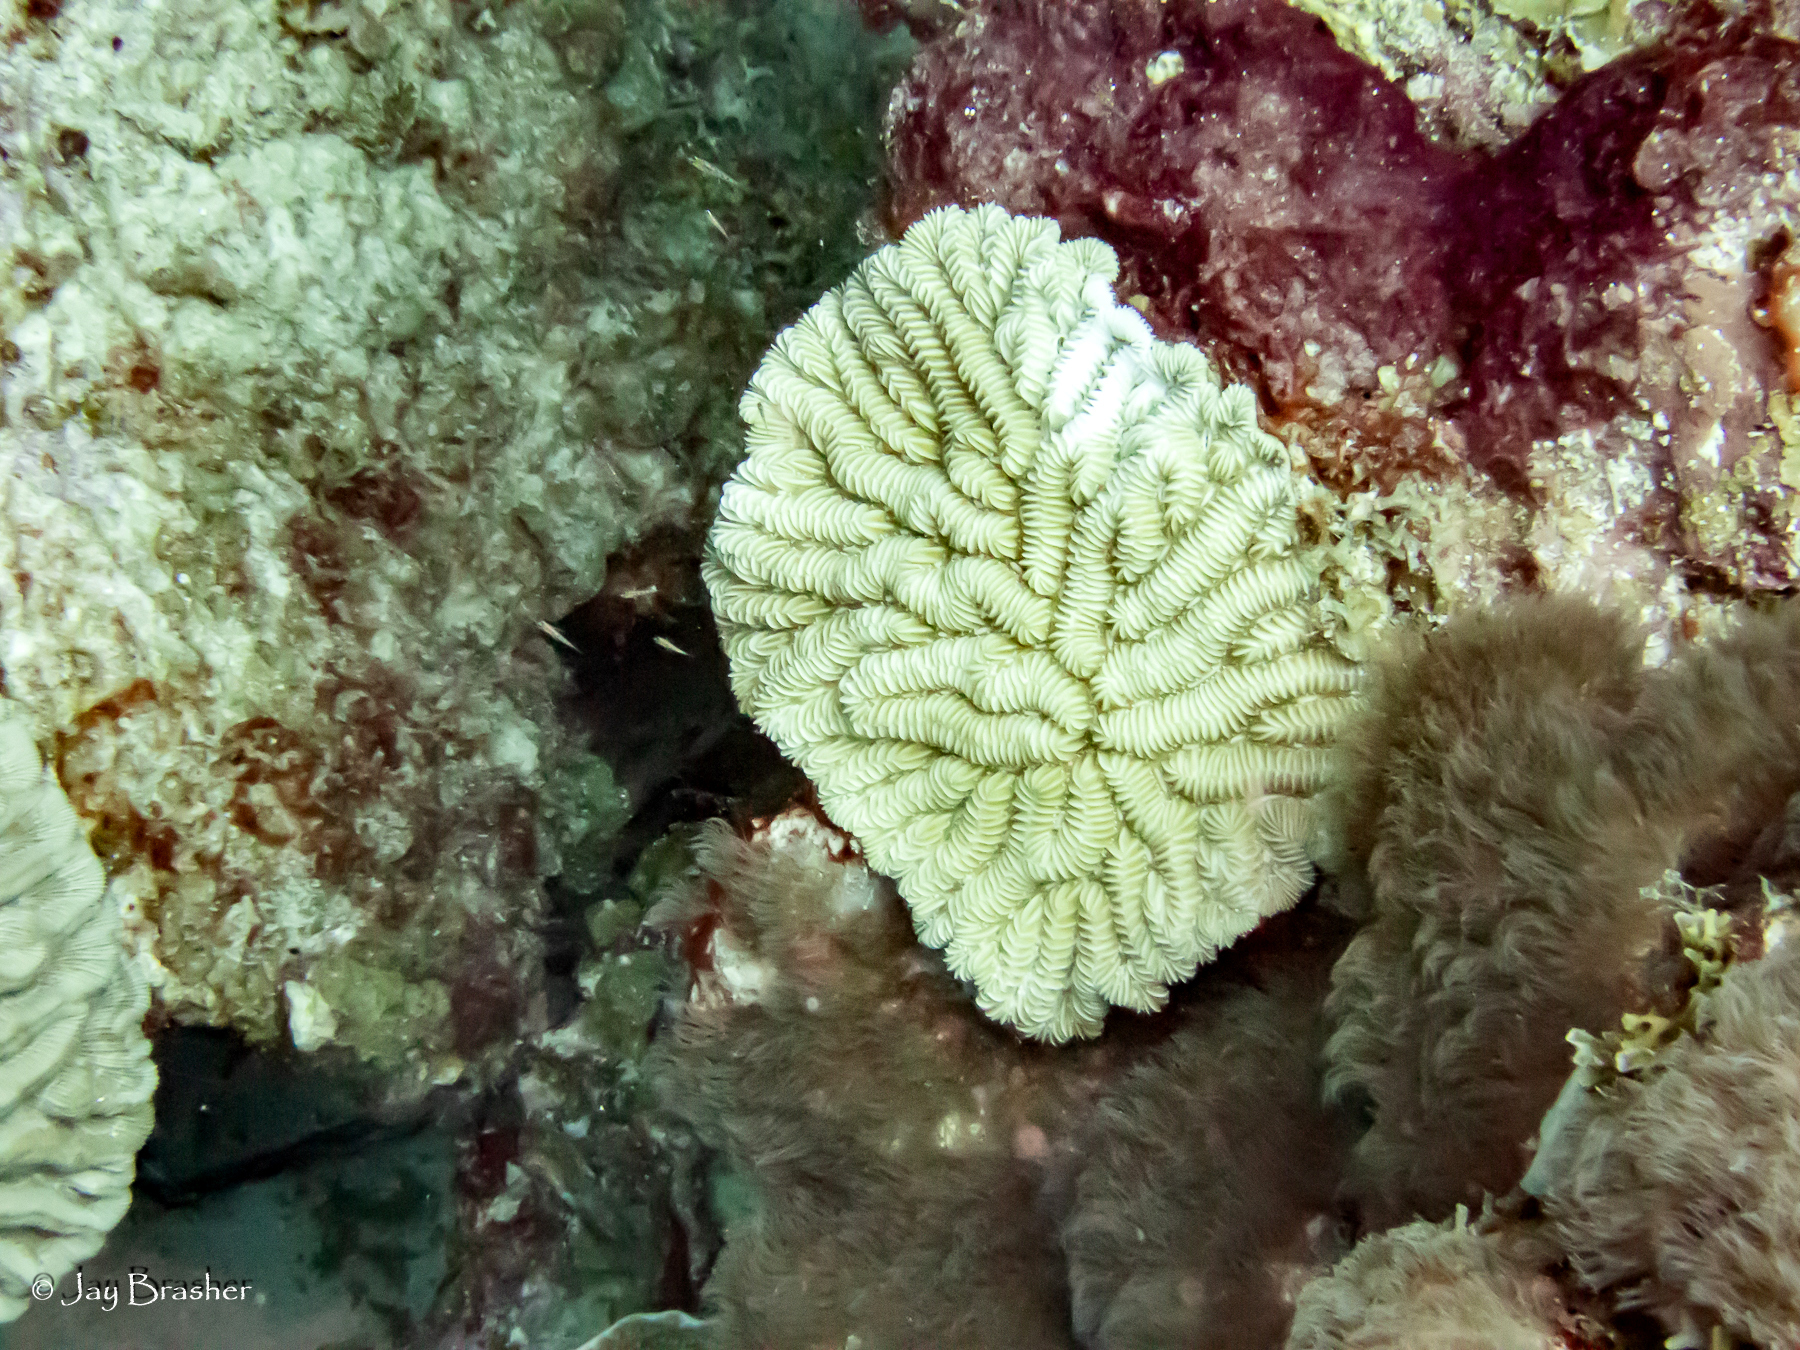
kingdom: Animalia
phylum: Cnidaria
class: Anthozoa
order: Scleractinia
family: Meandrinidae
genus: Meandrina
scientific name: Meandrina meandrites
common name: Maze coral
